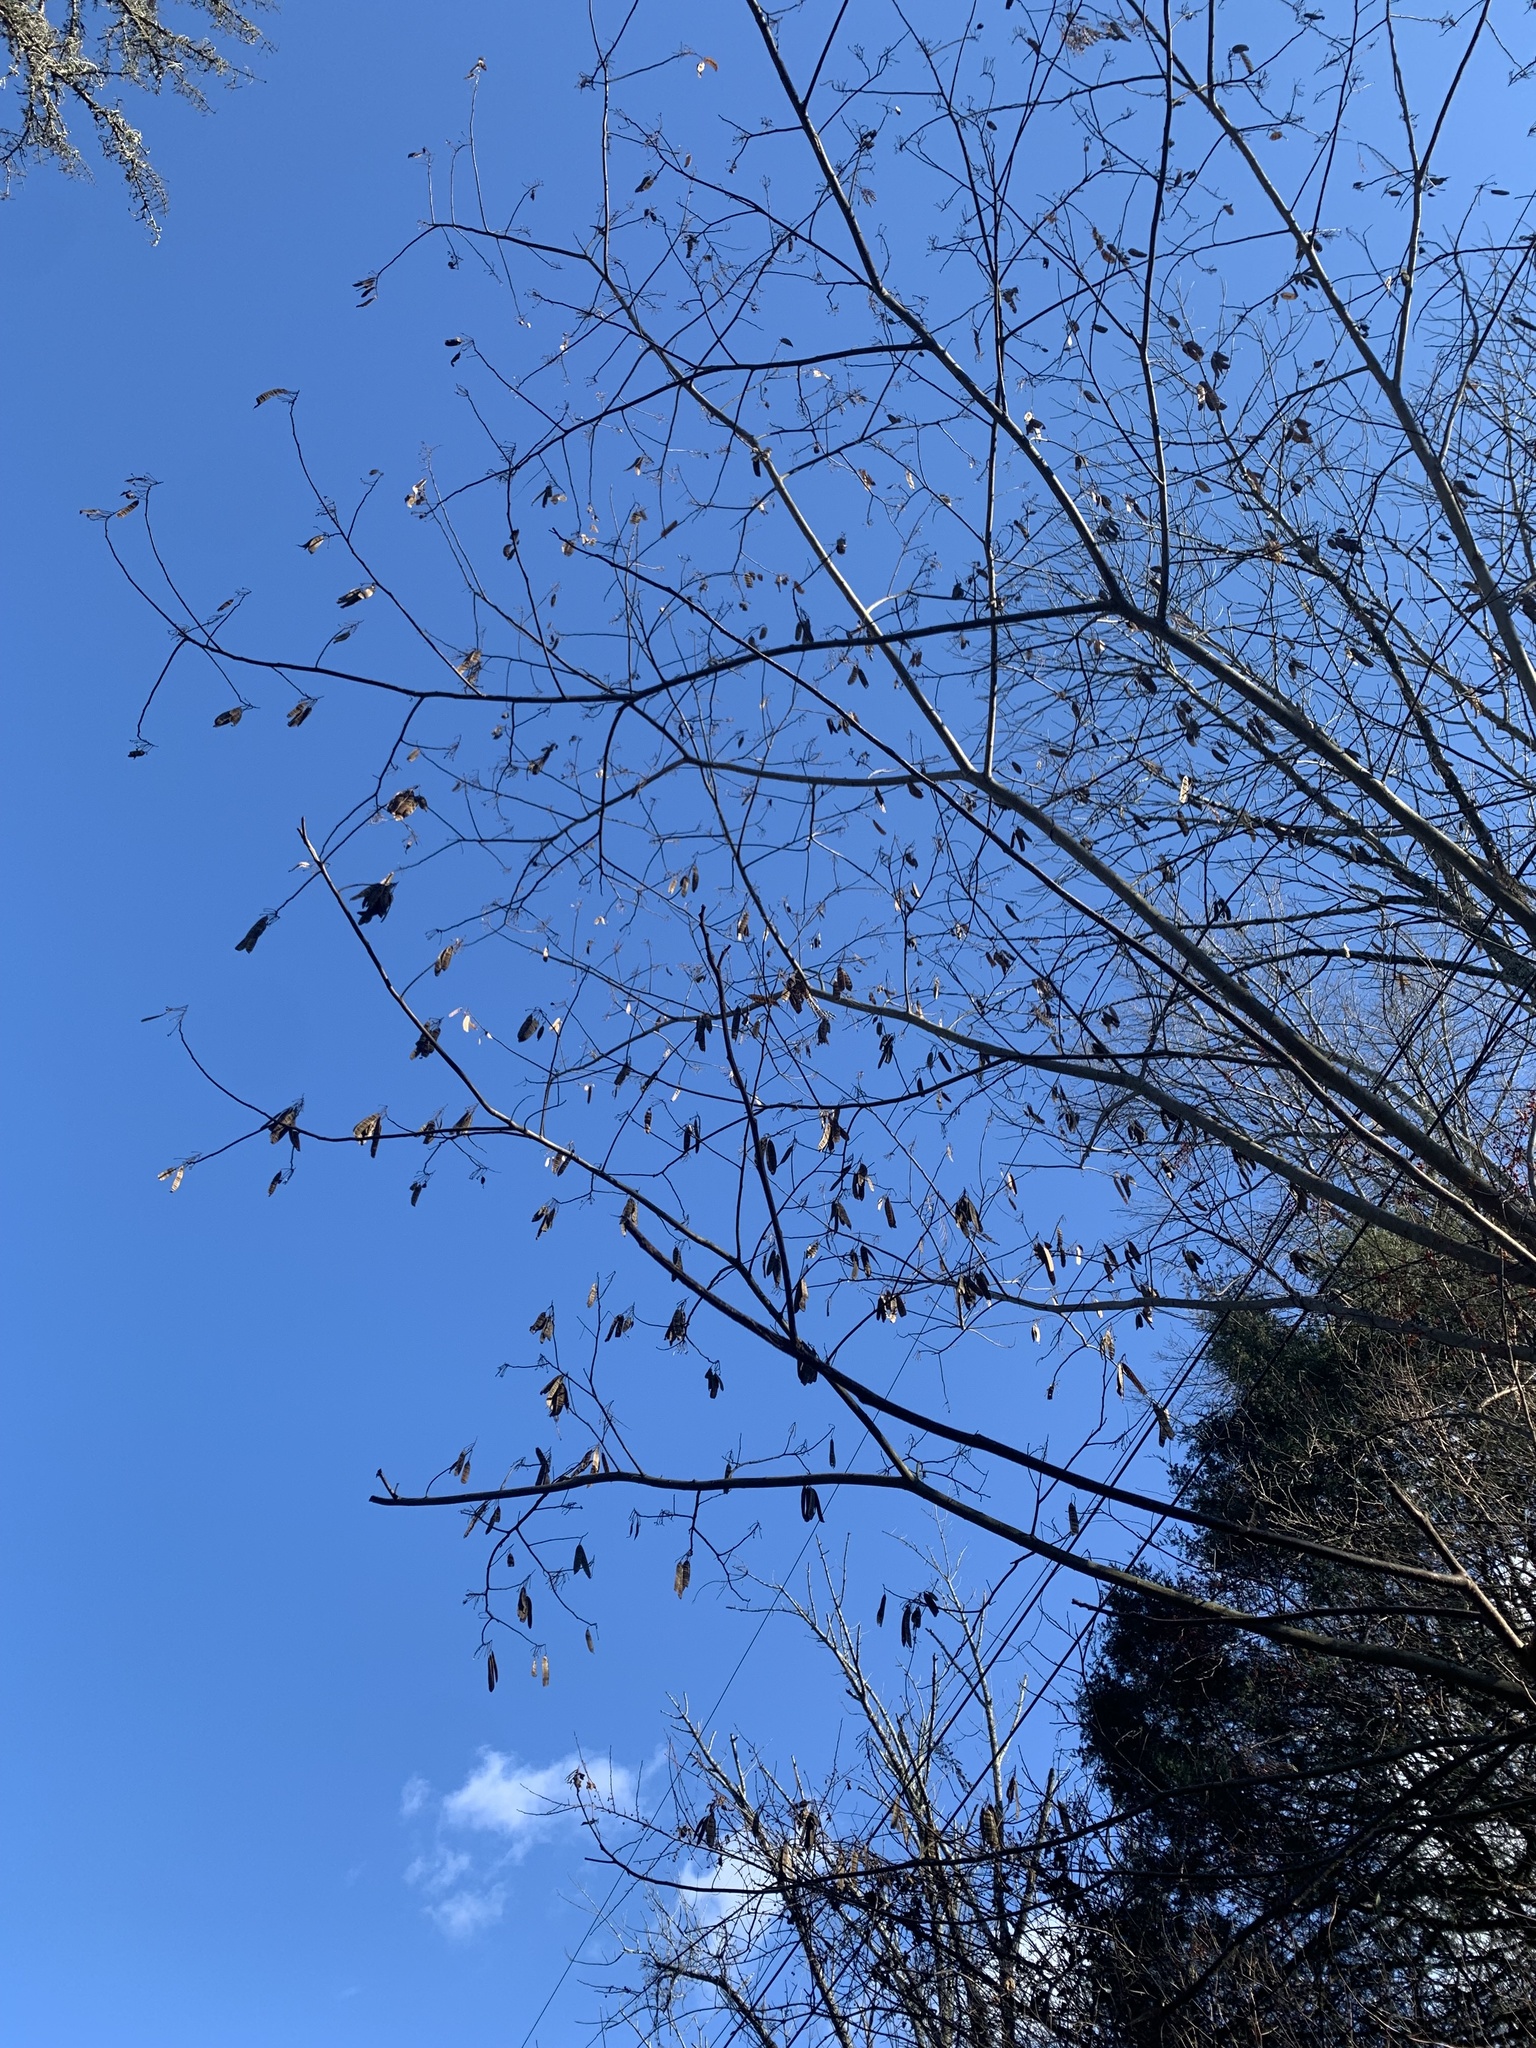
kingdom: Plantae
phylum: Tracheophyta
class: Magnoliopsida
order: Fabales
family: Fabaceae
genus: Albizia
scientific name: Albizia julibrissin
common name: Silktree
